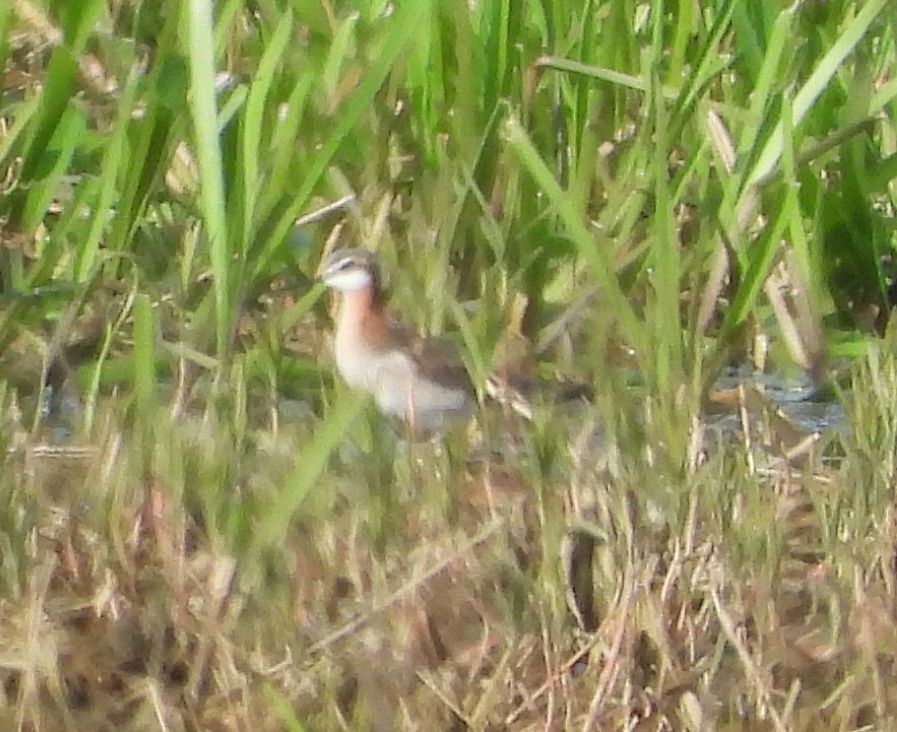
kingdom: Animalia
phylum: Chordata
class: Aves
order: Charadriiformes
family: Scolopacidae
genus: Phalaropus
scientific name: Phalaropus tricolor
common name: Wilson's phalarope
